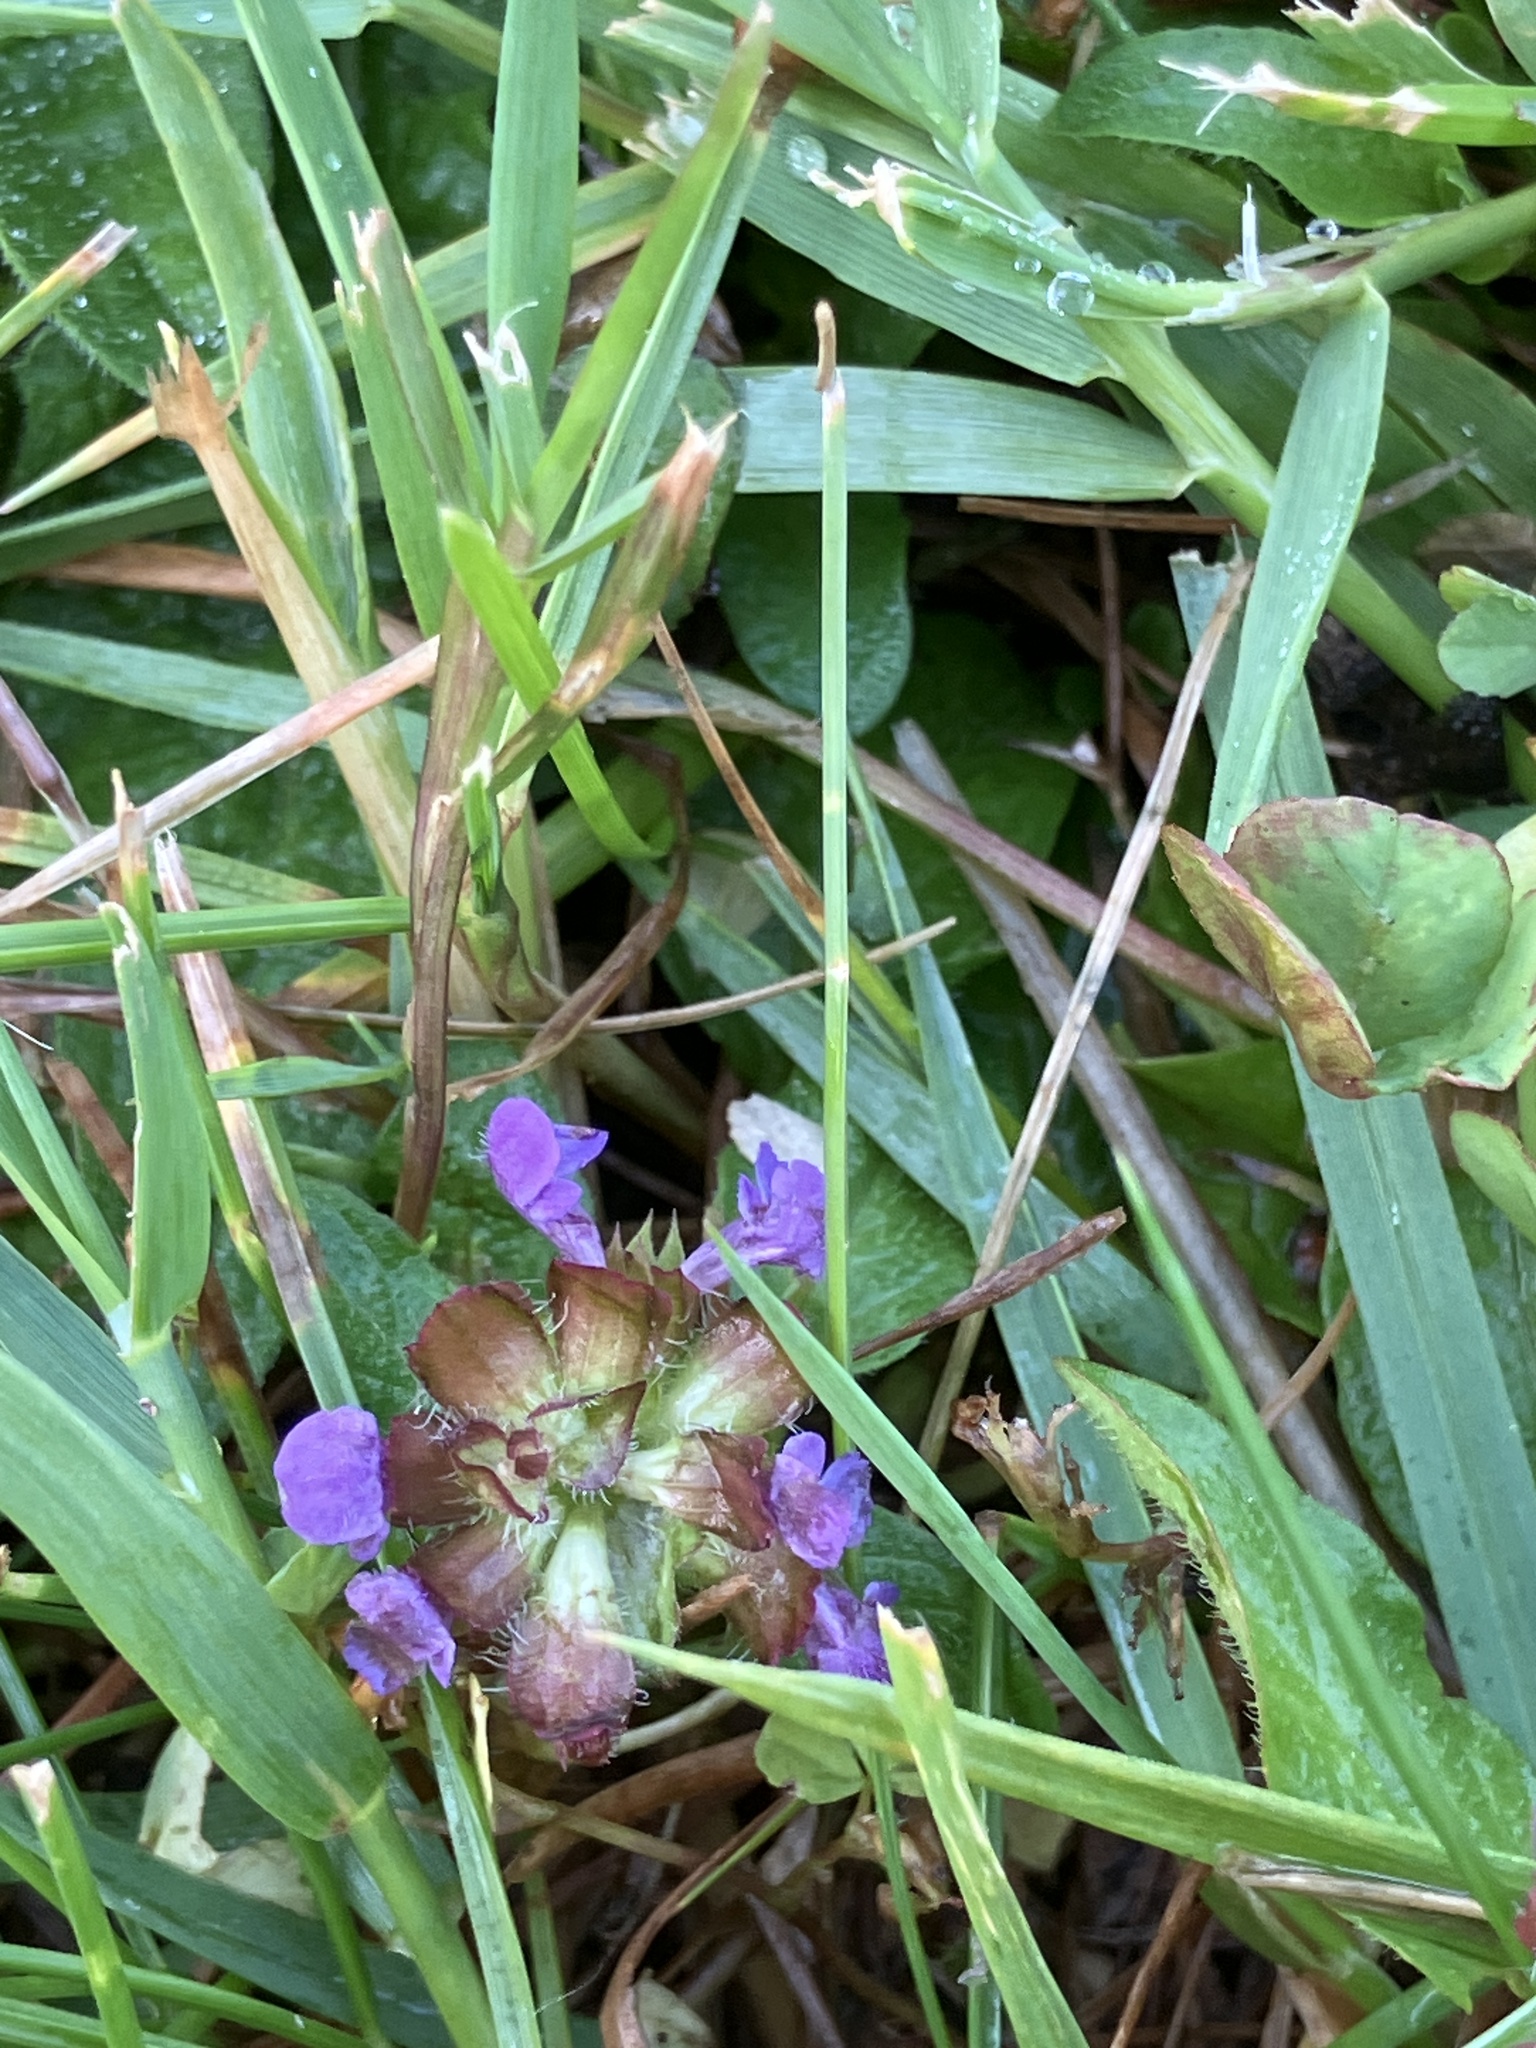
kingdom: Plantae
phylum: Tracheophyta
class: Magnoliopsida
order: Lamiales
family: Lamiaceae
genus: Prunella
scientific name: Prunella vulgaris
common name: Heal-all
